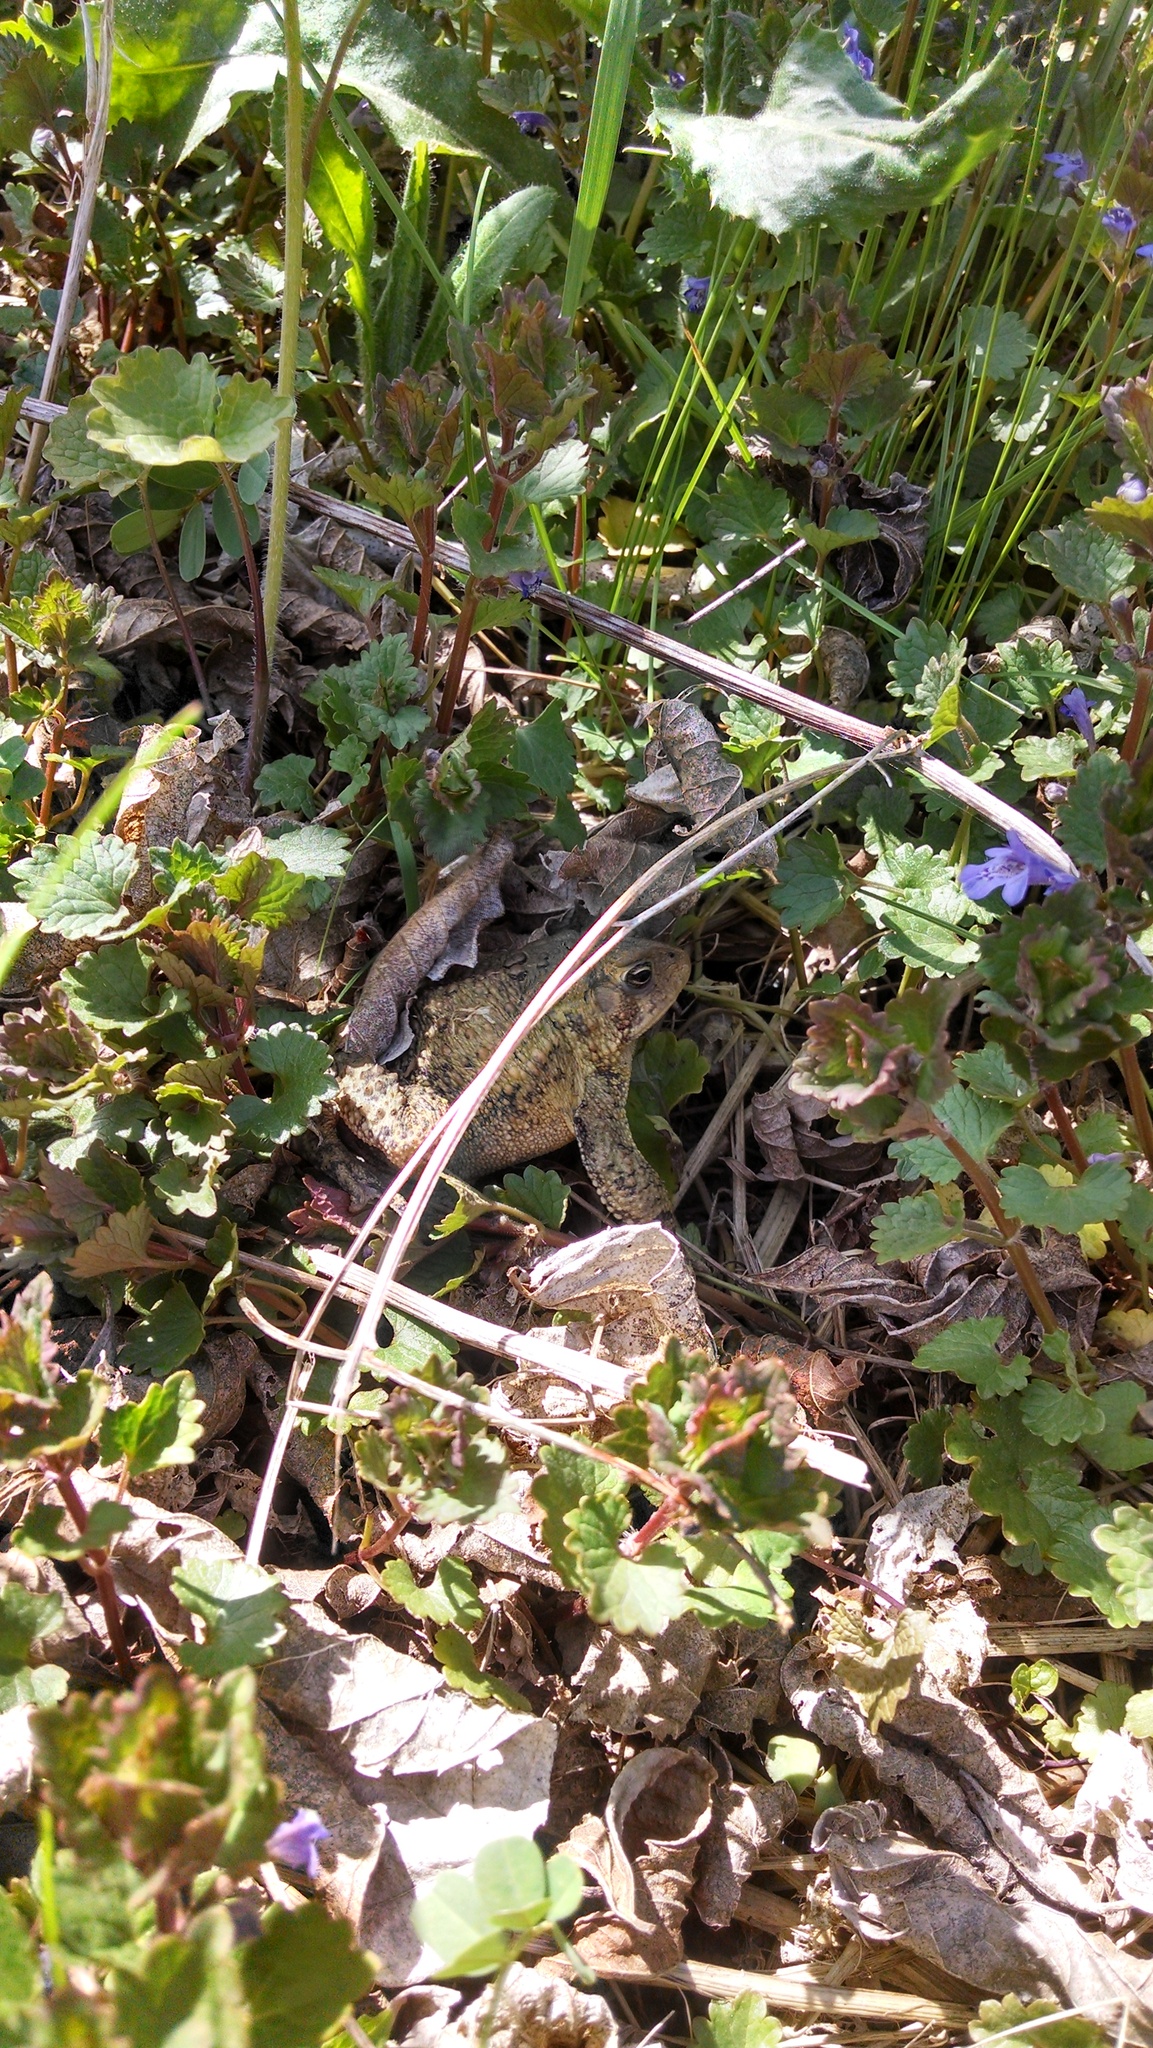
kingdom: Animalia
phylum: Chordata
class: Amphibia
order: Anura
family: Bufonidae
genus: Anaxyrus
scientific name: Anaxyrus americanus
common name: American toad
